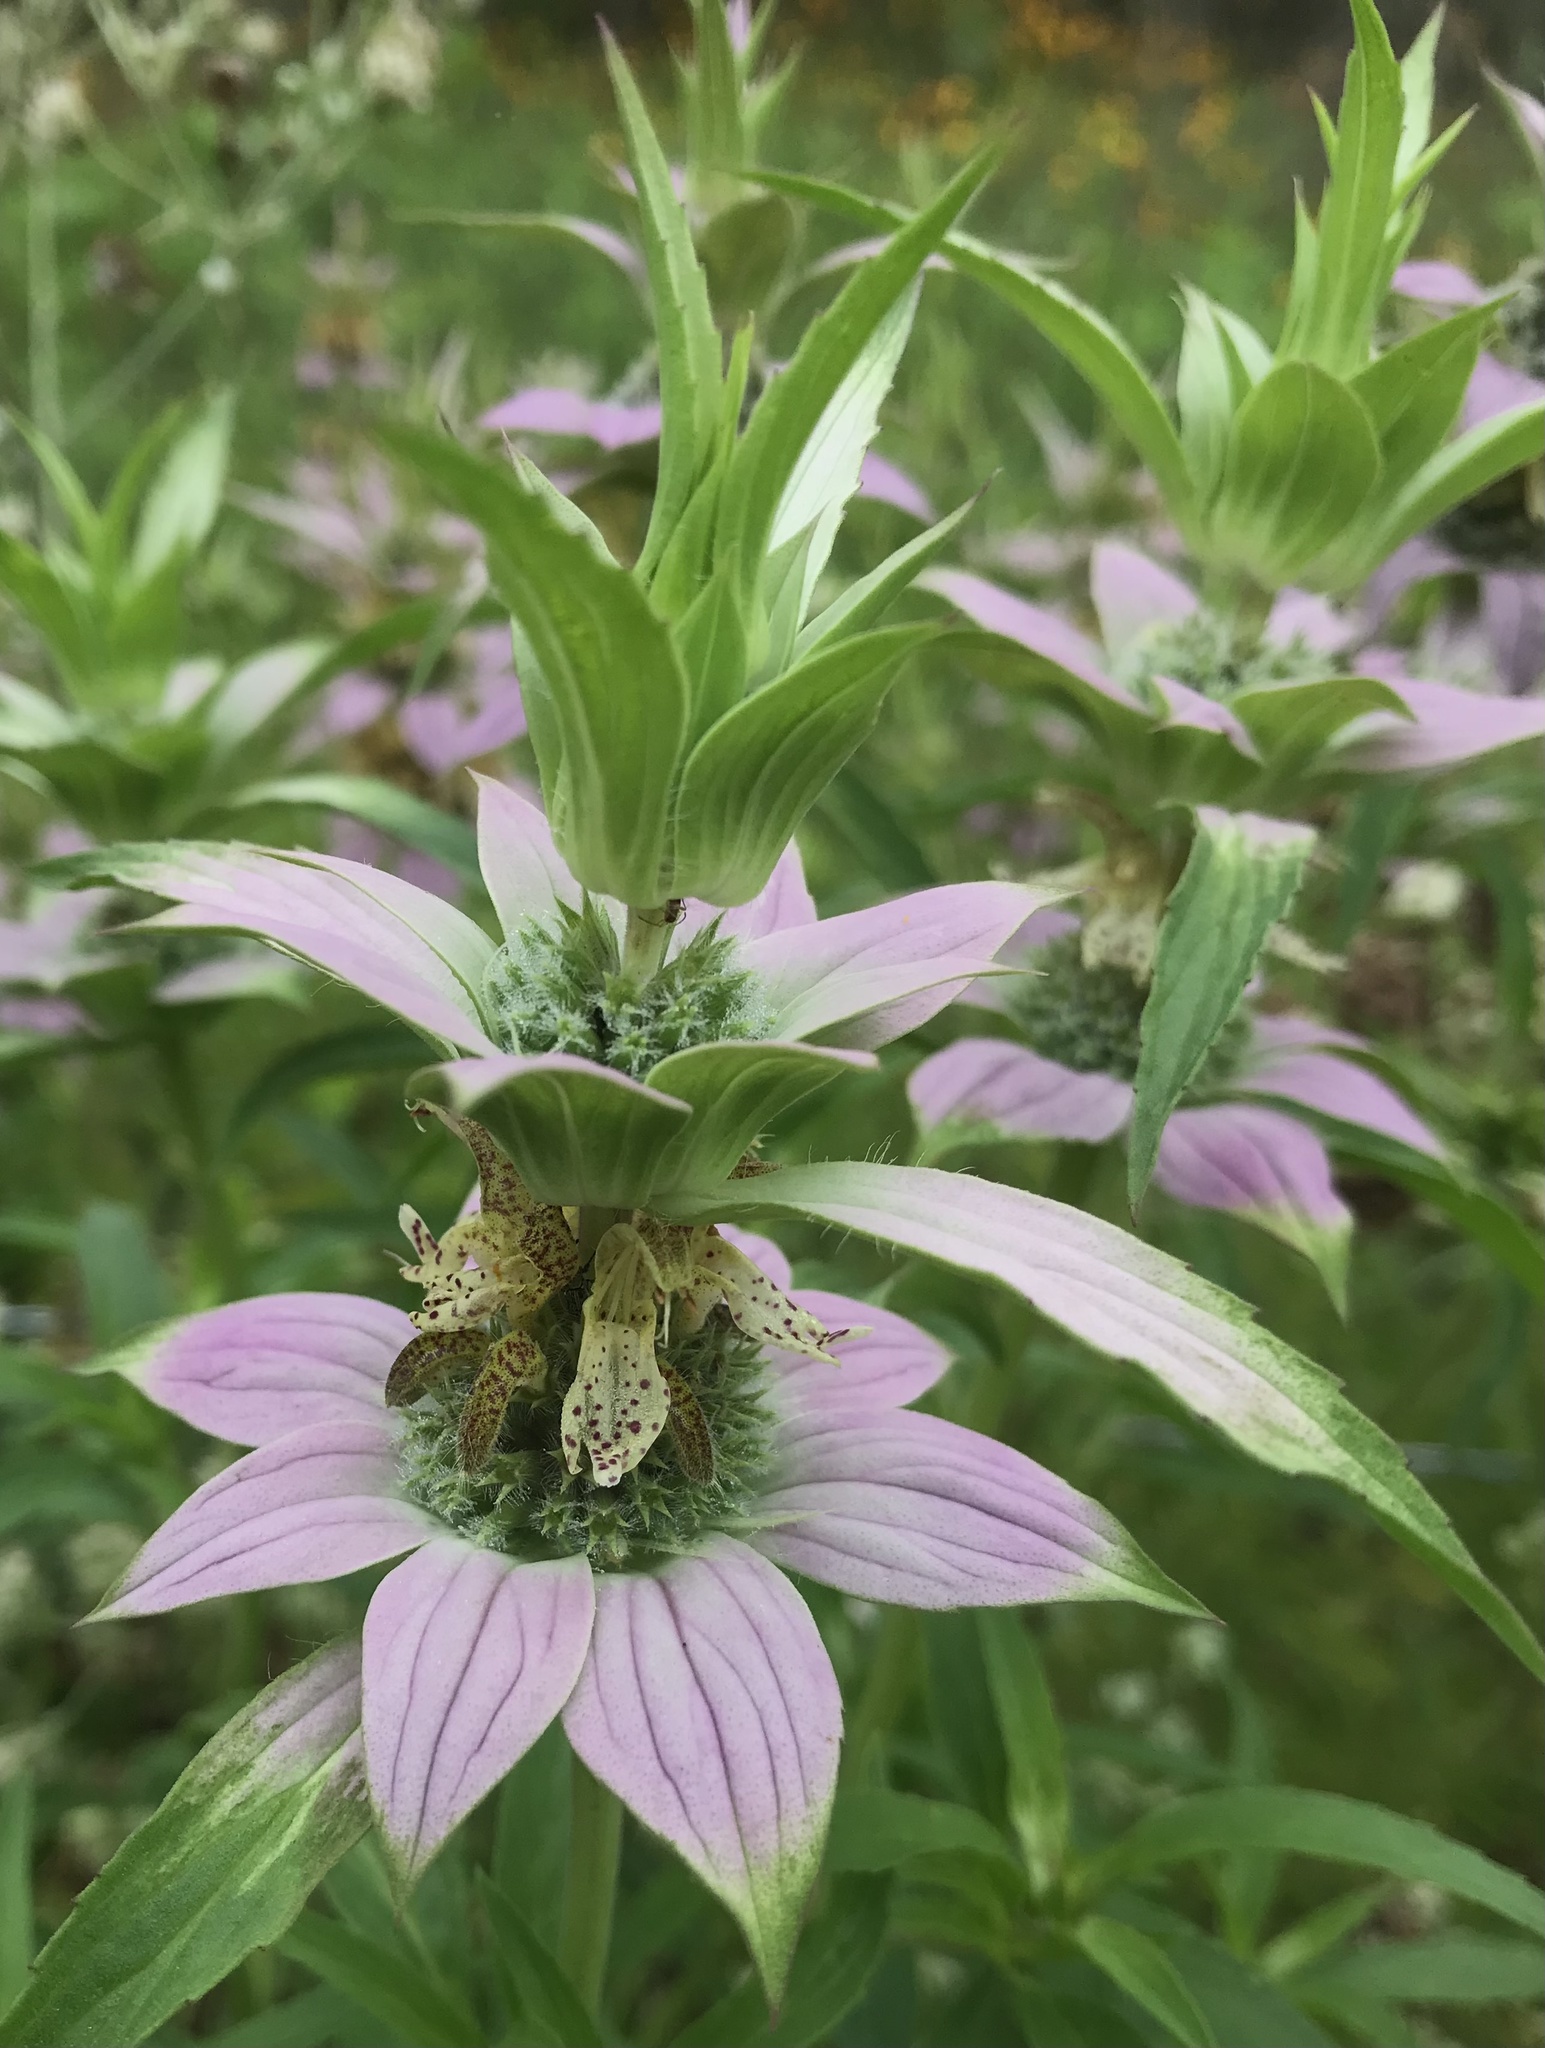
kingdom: Plantae
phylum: Tracheophyta
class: Magnoliopsida
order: Lamiales
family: Lamiaceae
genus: Monarda
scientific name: Monarda punctata
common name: Dotted monarda
